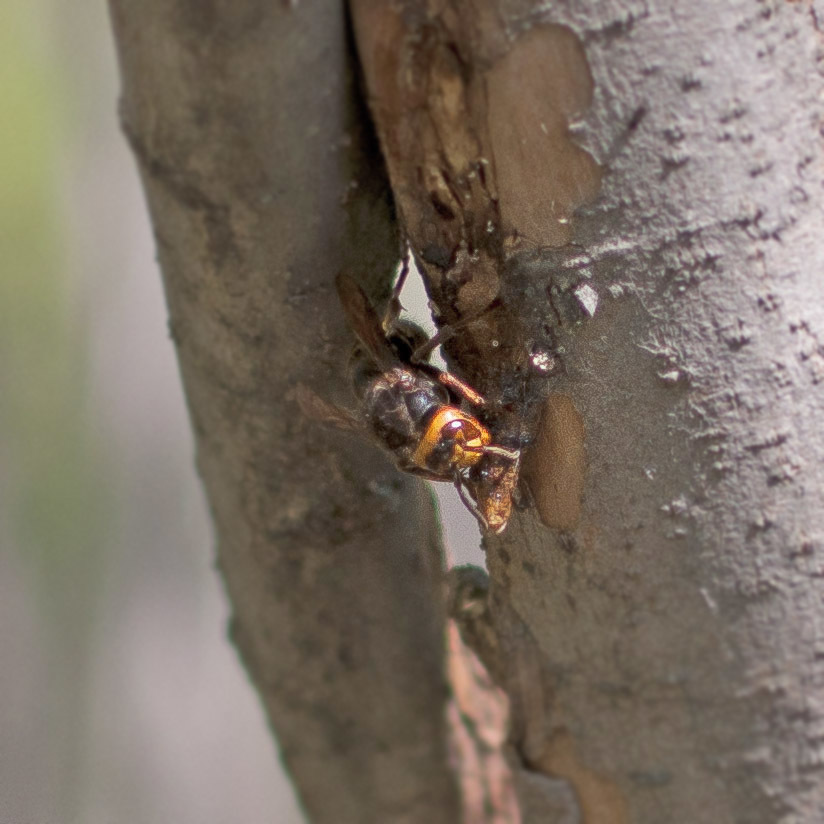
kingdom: Animalia
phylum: Arthropoda
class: Insecta
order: Hymenoptera
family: Vespidae
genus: Vespa
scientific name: Vespa crabro
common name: Hornet
